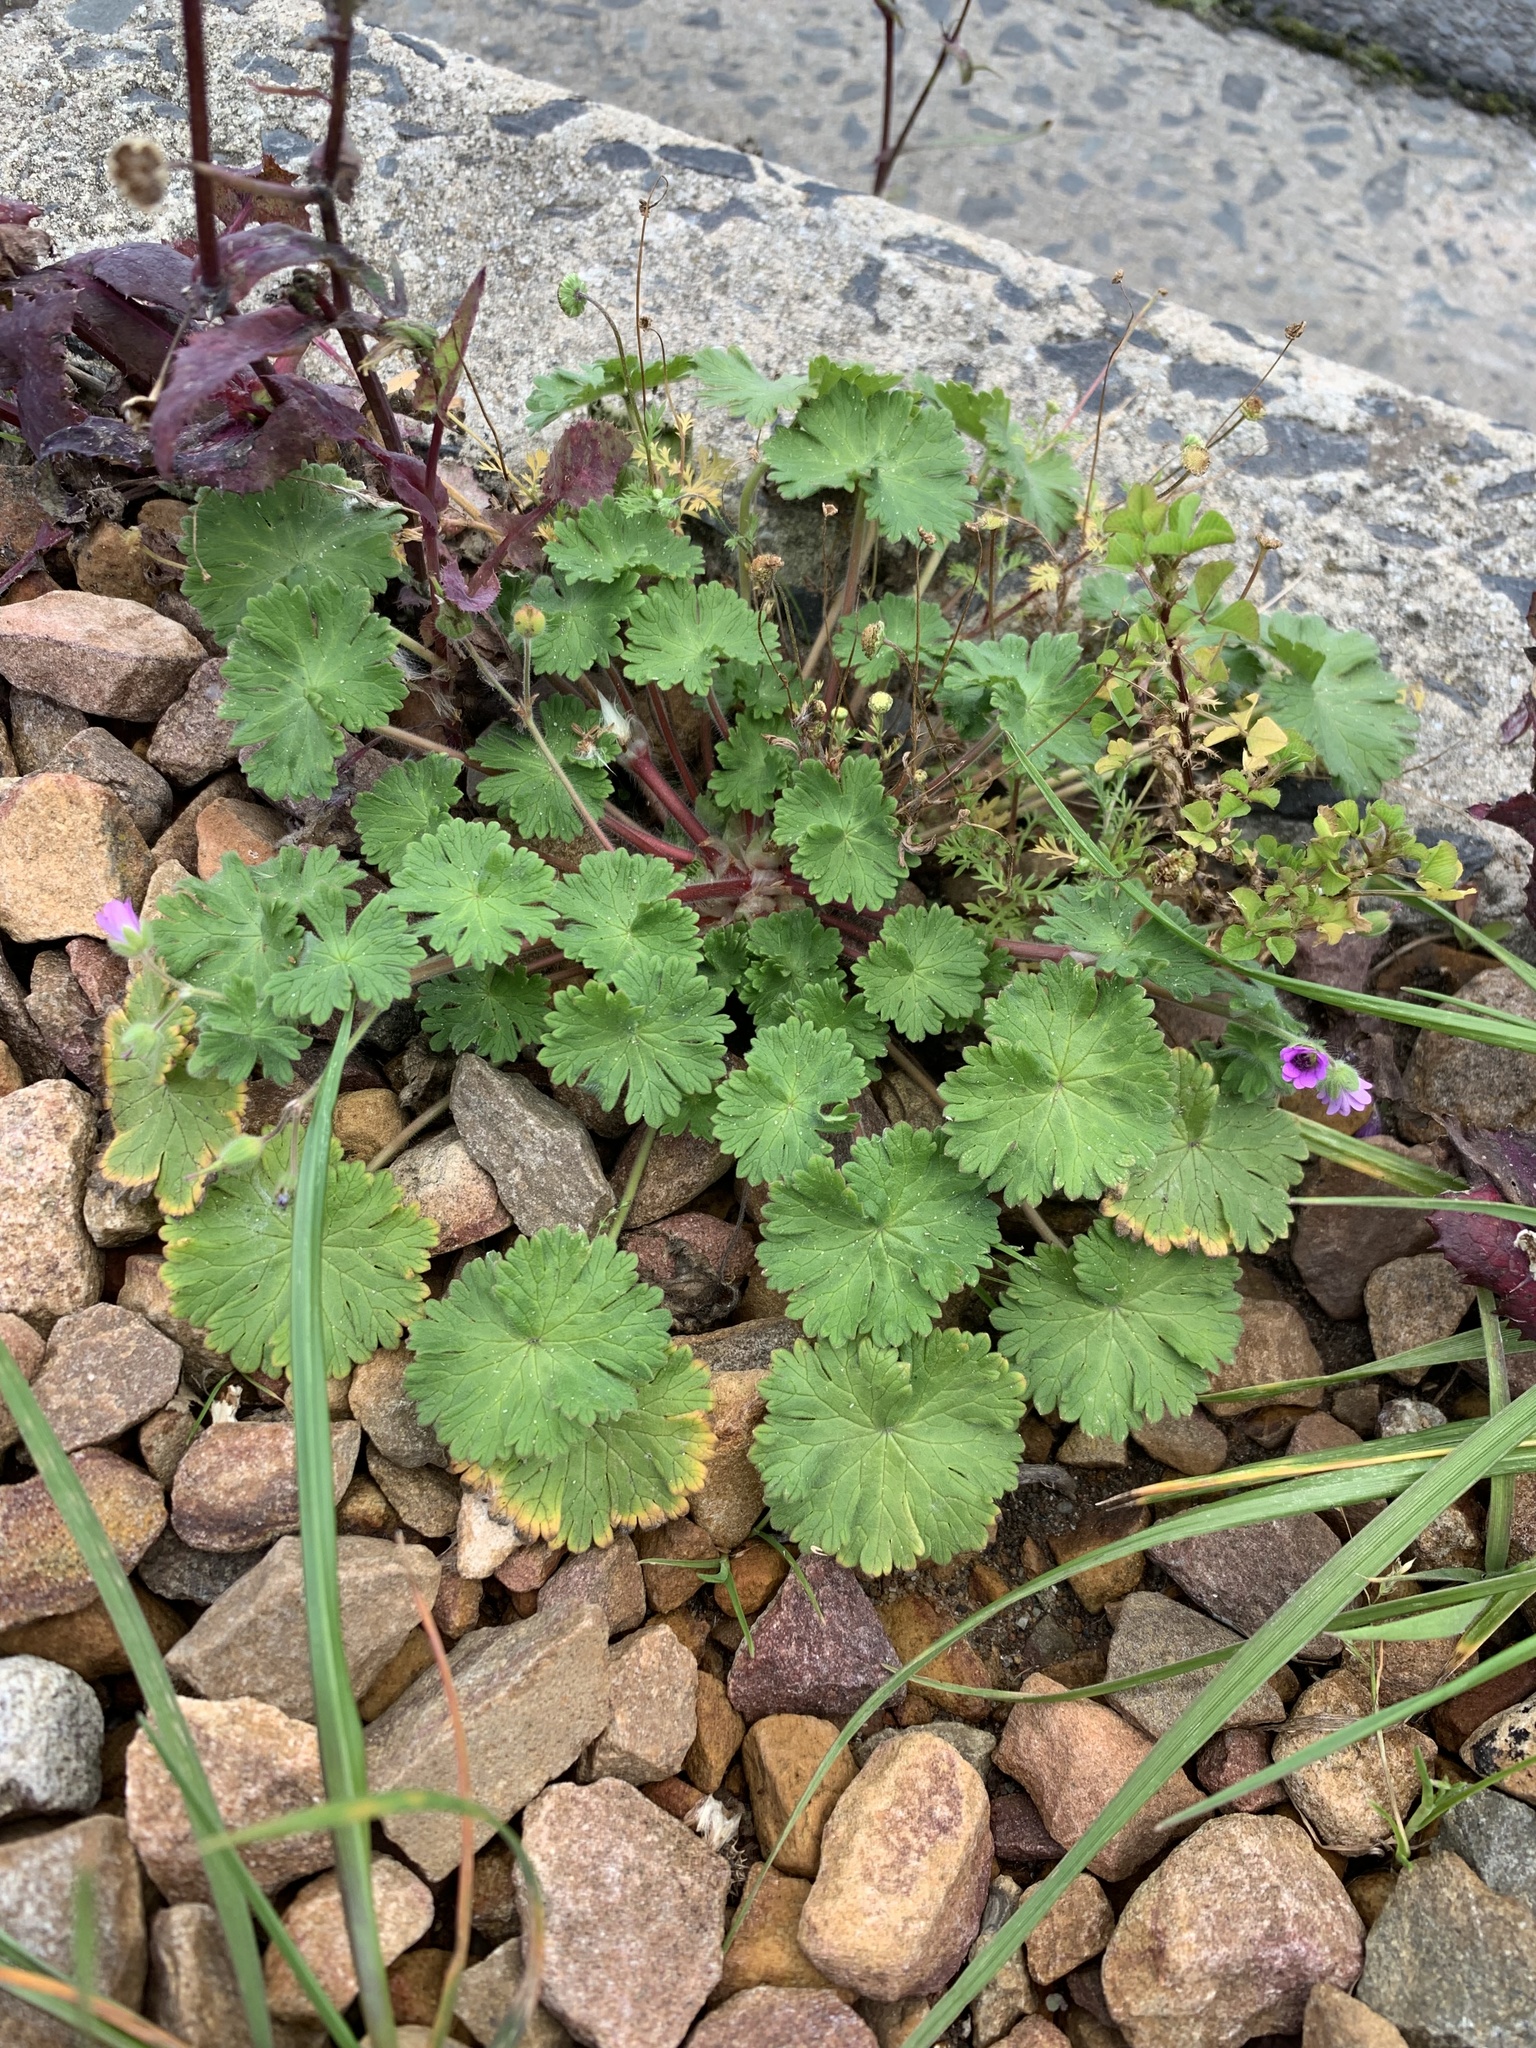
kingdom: Plantae
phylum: Tracheophyta
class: Magnoliopsida
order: Geraniales
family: Geraniaceae
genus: Geranium
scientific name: Geranium molle
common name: Dove's-foot crane's-bill
